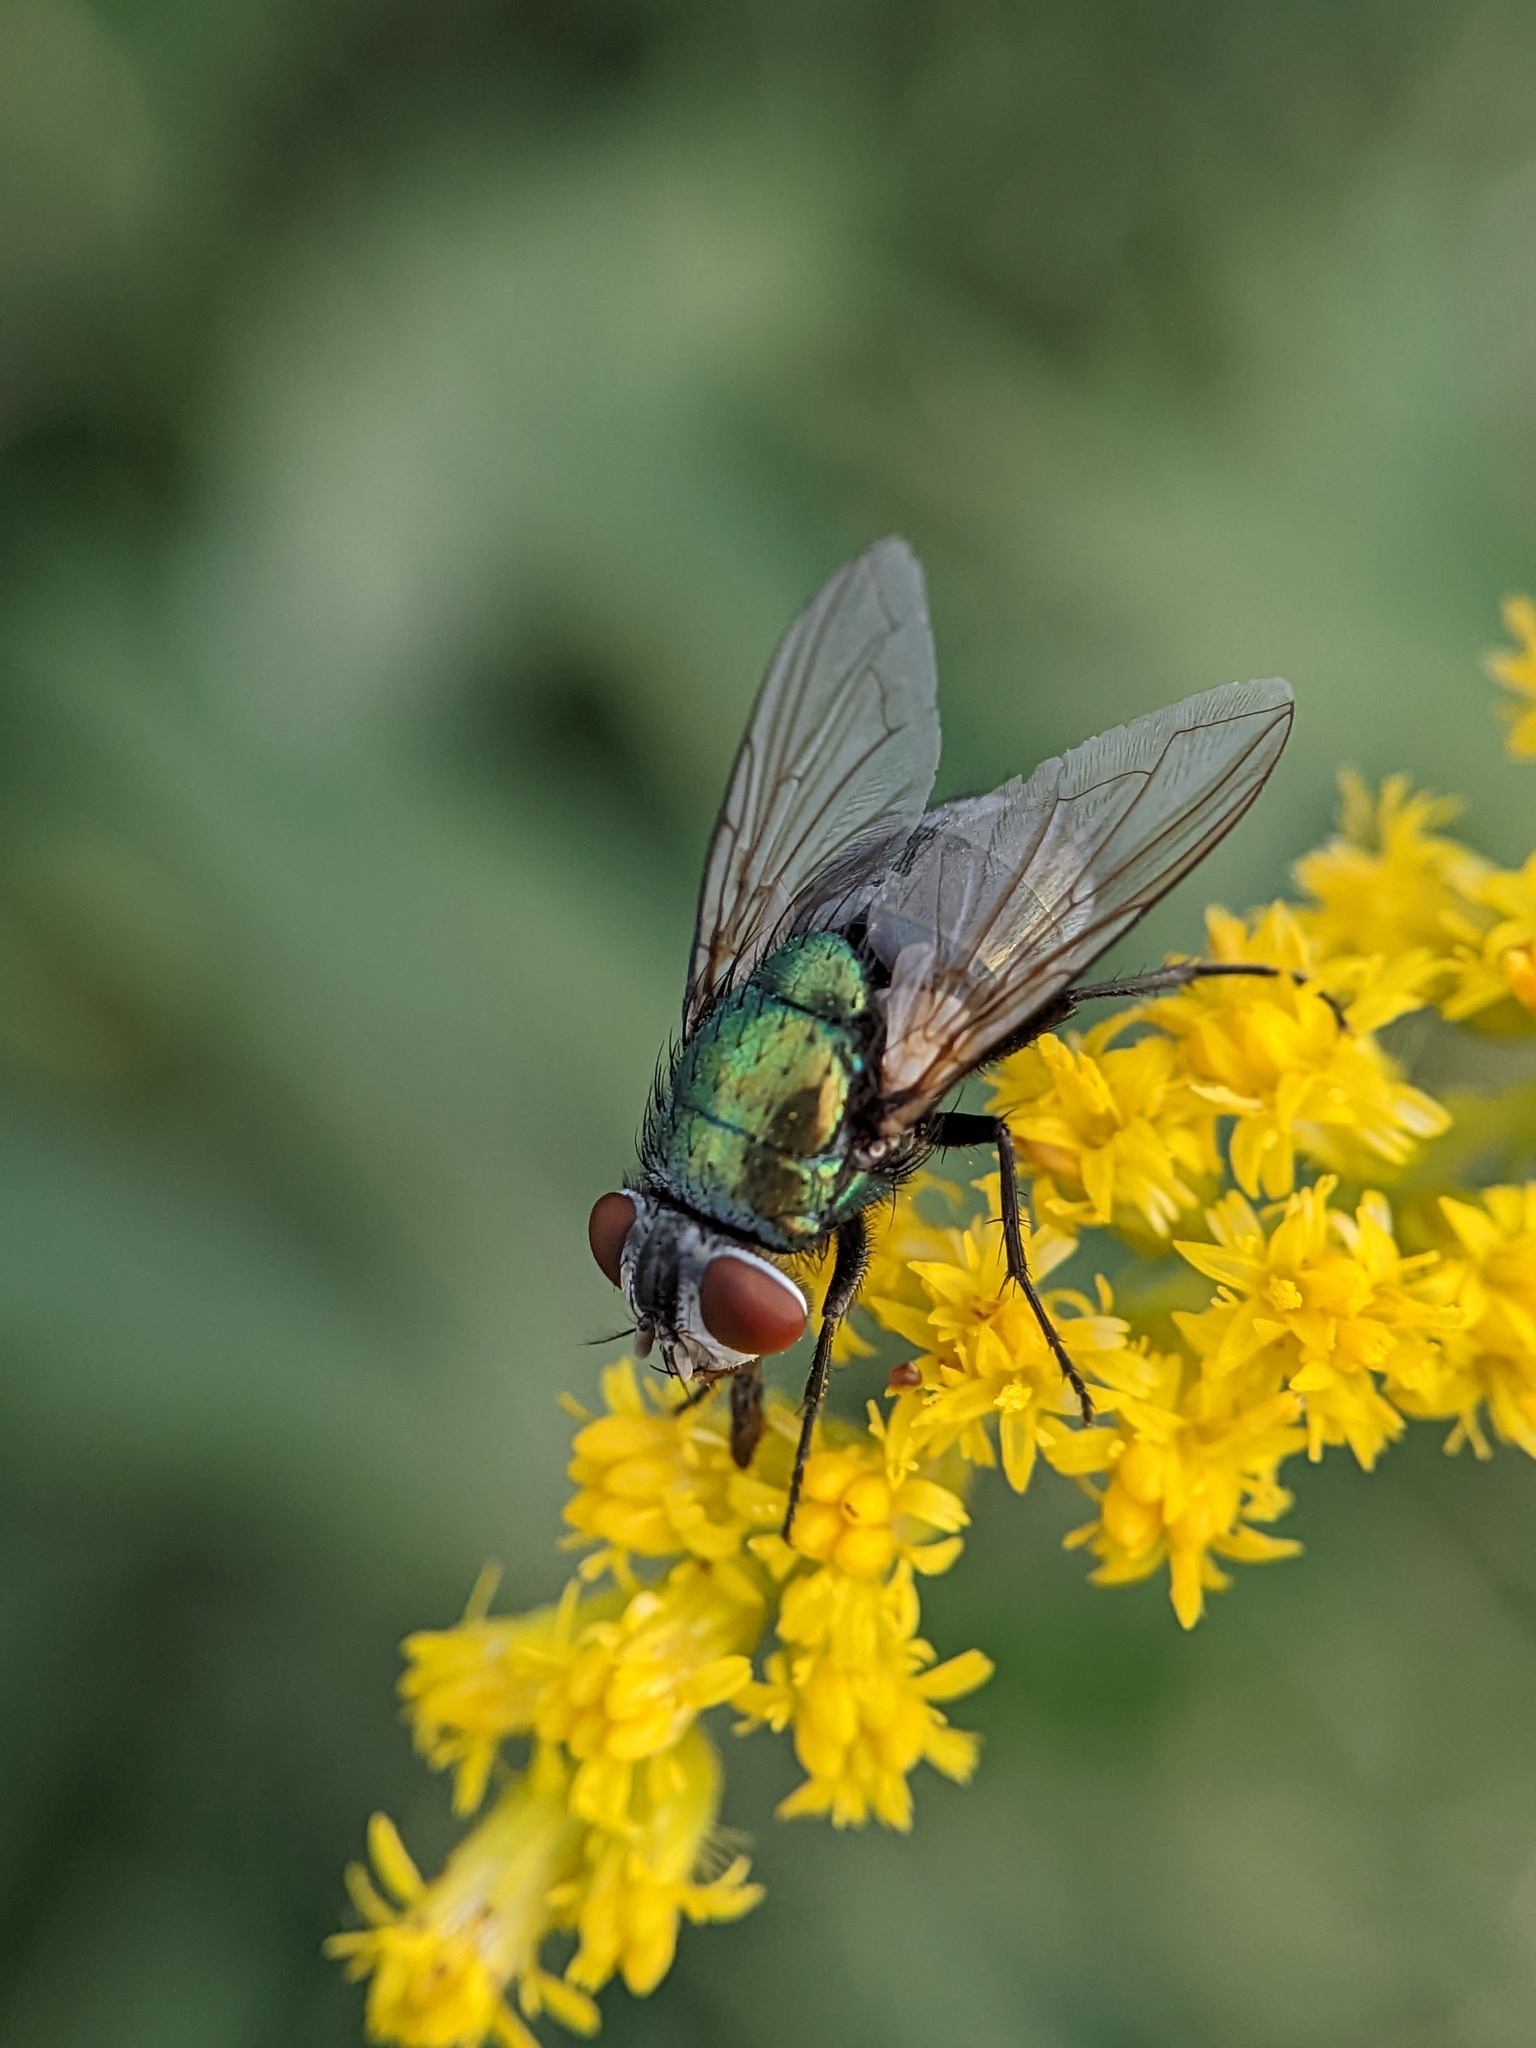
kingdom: Animalia
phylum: Arthropoda
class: Insecta
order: Diptera
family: Calliphoridae
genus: Lucilia
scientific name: Lucilia sericata
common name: Blow fly
